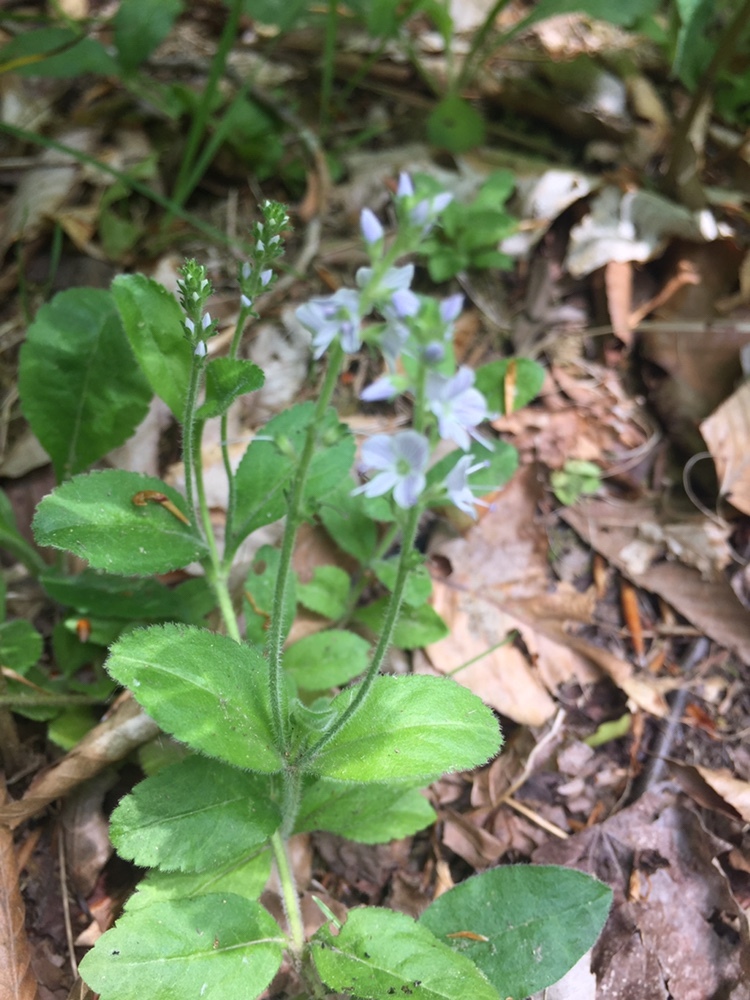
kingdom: Plantae
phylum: Tracheophyta
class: Magnoliopsida
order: Lamiales
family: Plantaginaceae
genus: Veronica
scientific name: Veronica officinalis
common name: Common speedwell
